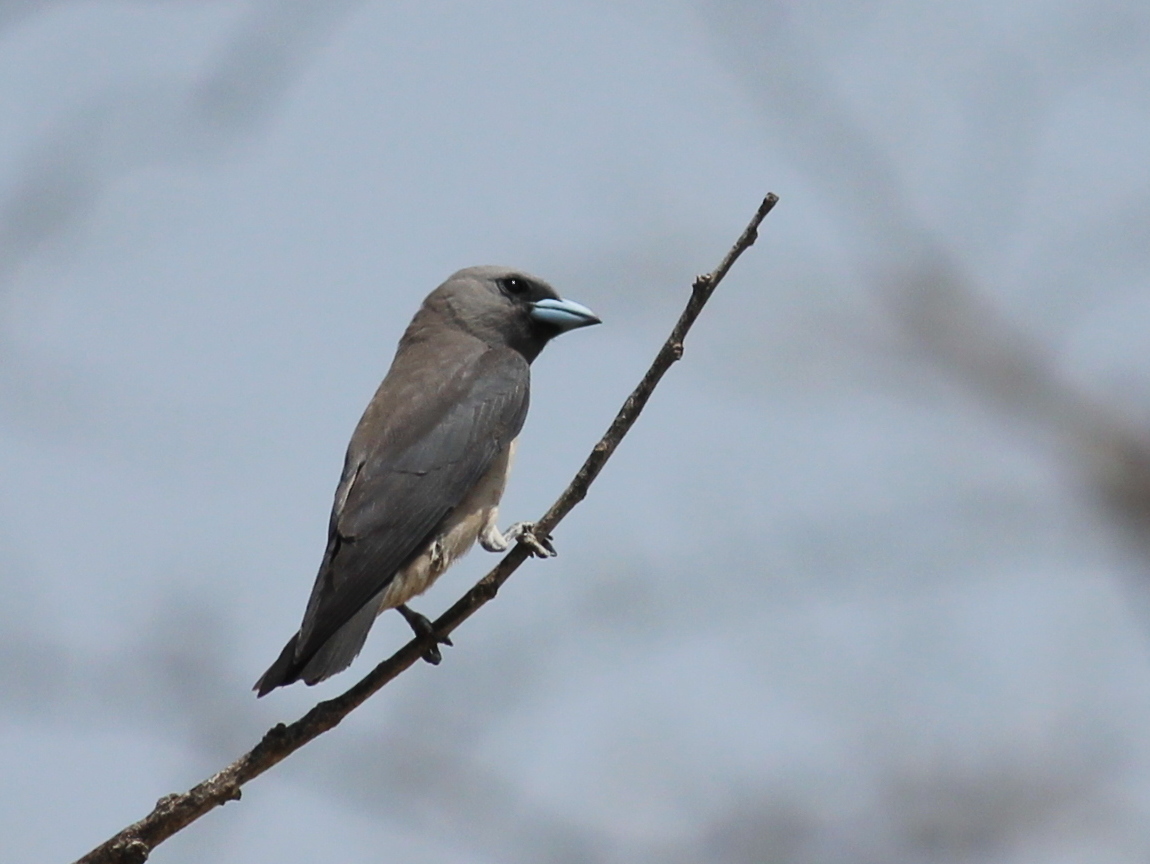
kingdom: Animalia
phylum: Chordata
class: Aves
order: Passeriformes
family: Artamidae
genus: Artamus
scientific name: Artamus fuscus
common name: Ashy woodswallow
